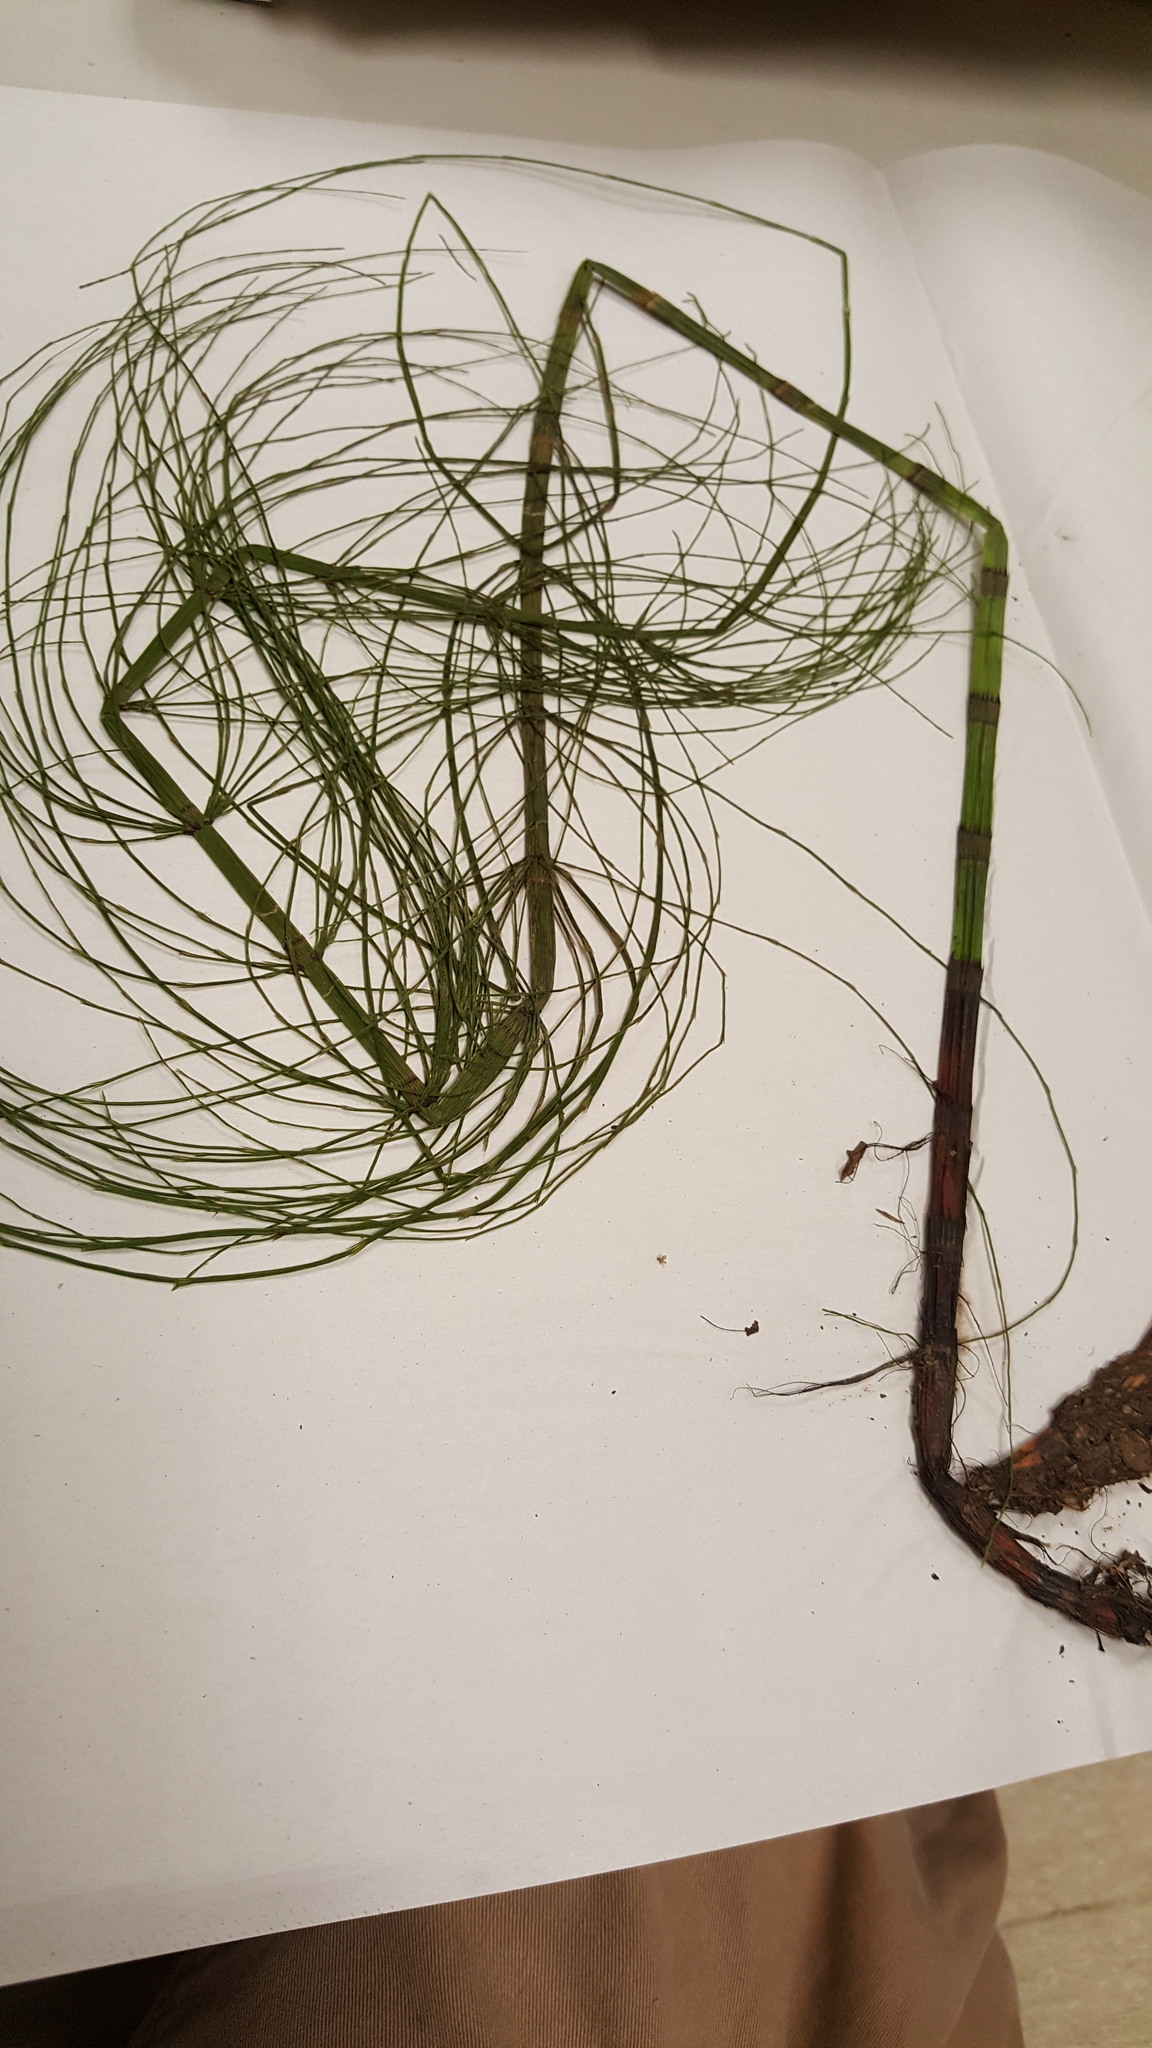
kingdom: Plantae
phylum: Tracheophyta
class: Polypodiopsida
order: Equisetales
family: Equisetaceae
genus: Equisetum
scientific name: Equisetum fluviatile
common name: Water horsetail
